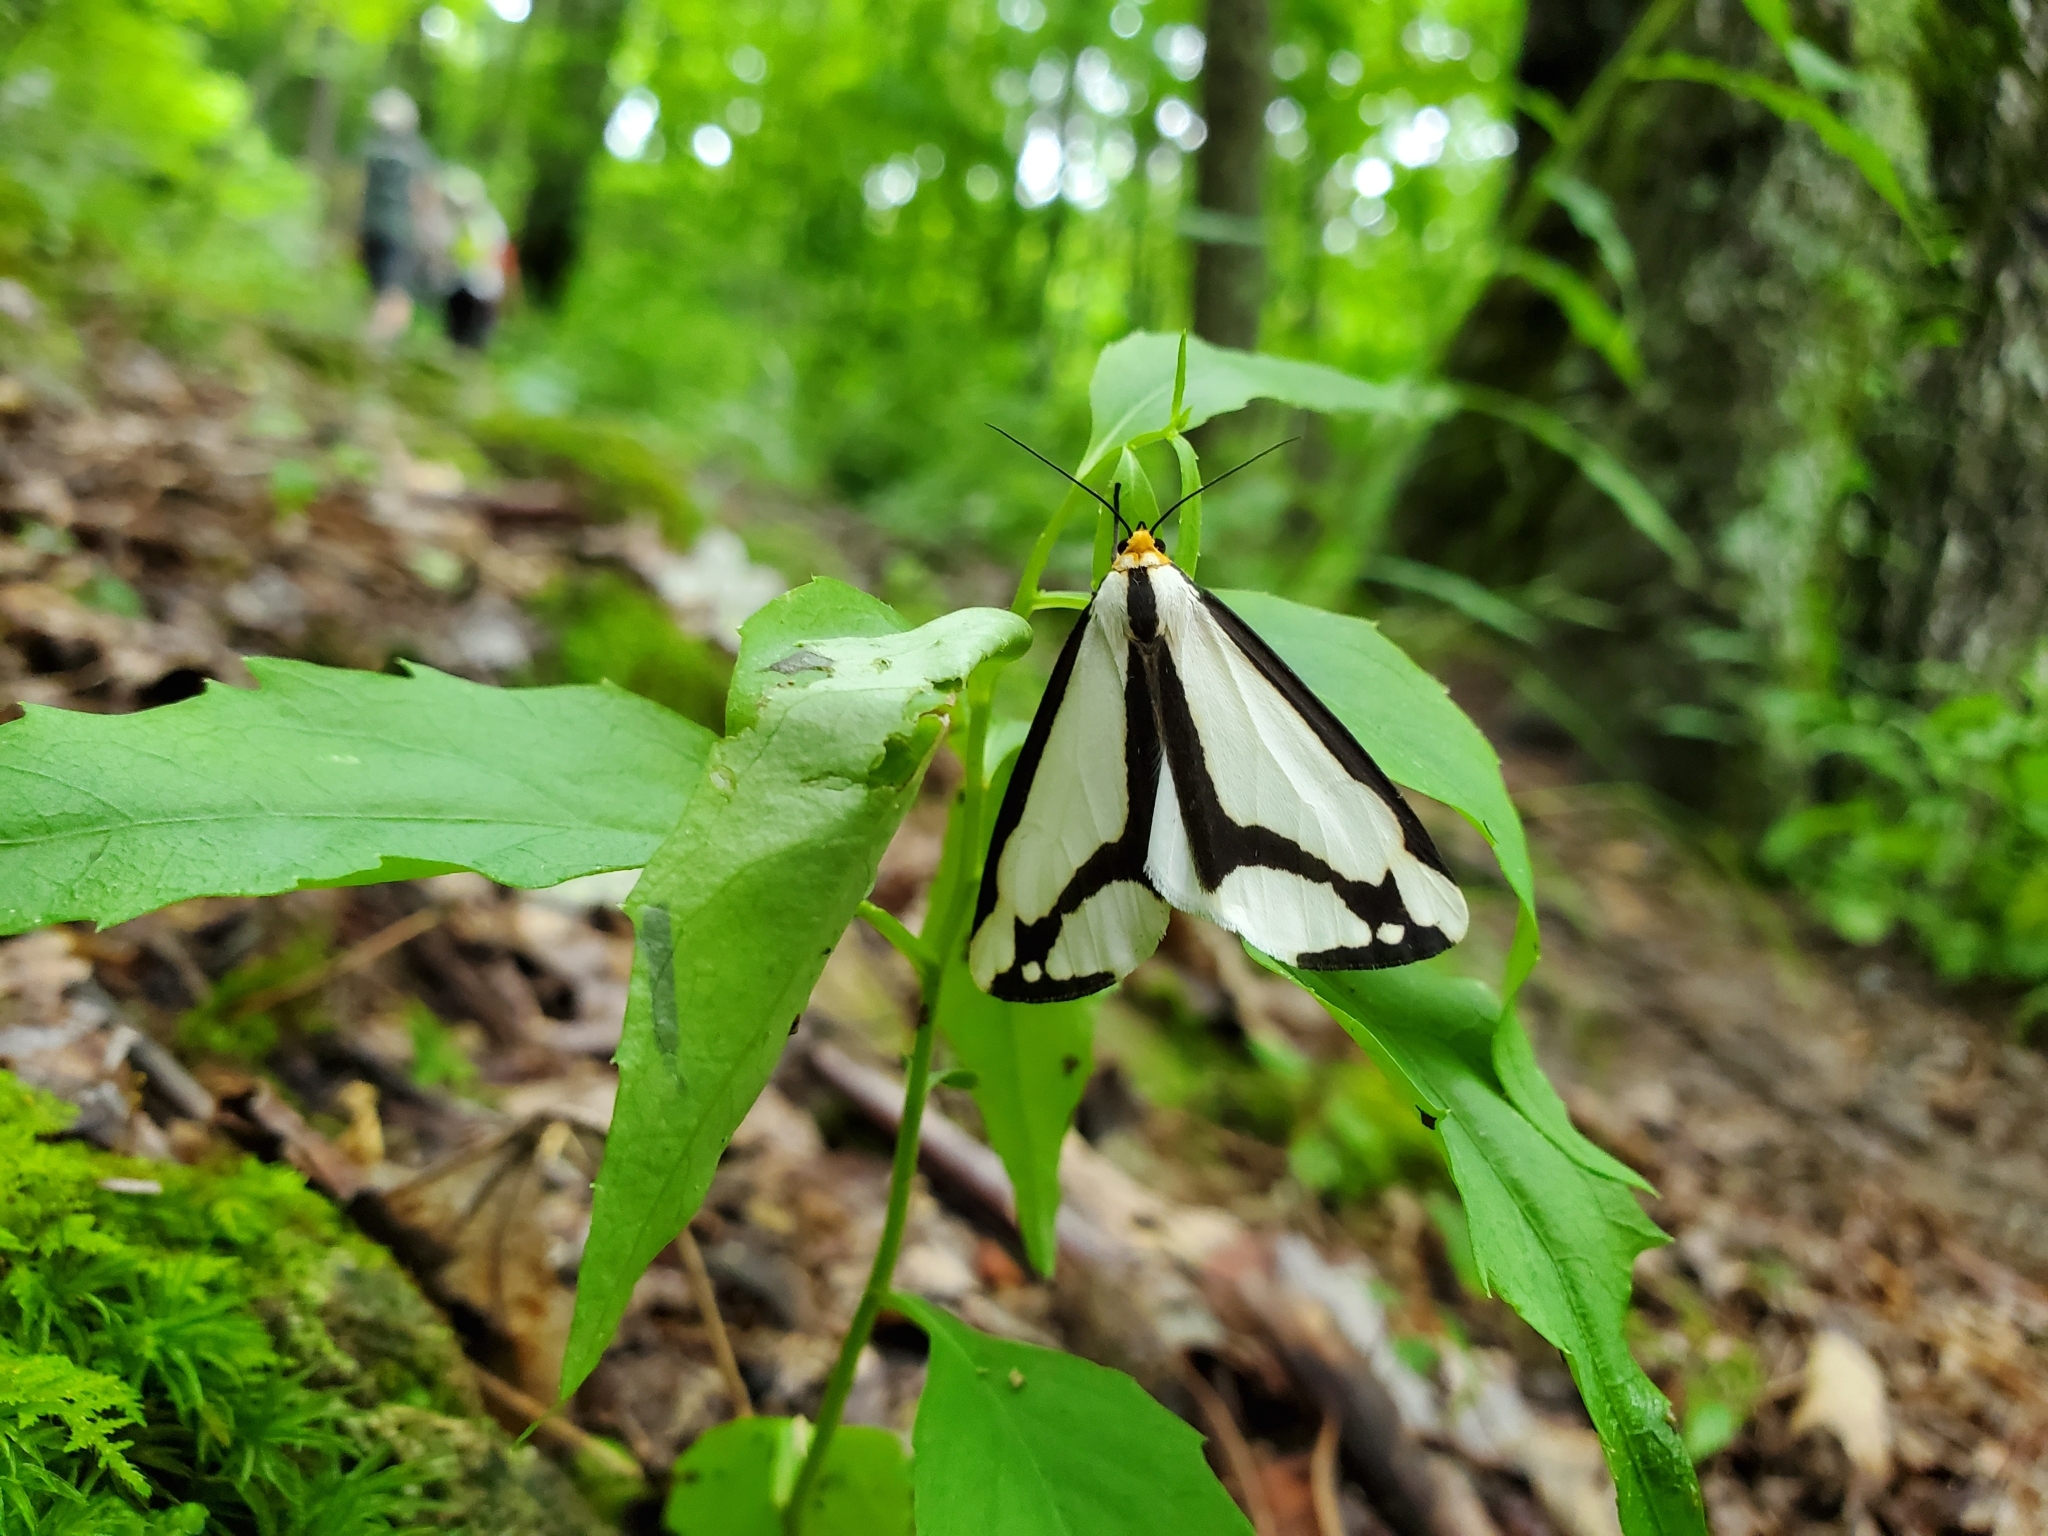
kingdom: Animalia
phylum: Arthropoda
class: Insecta
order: Lepidoptera
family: Erebidae
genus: Haploa
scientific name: Haploa lecontei
